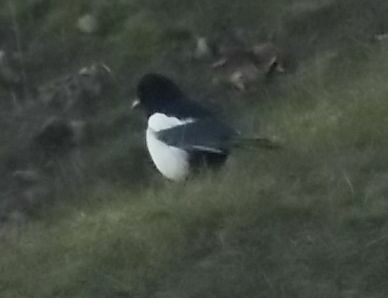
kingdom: Animalia
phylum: Chordata
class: Aves
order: Passeriformes
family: Corvidae
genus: Pica
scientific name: Pica pica
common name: Eurasian magpie
